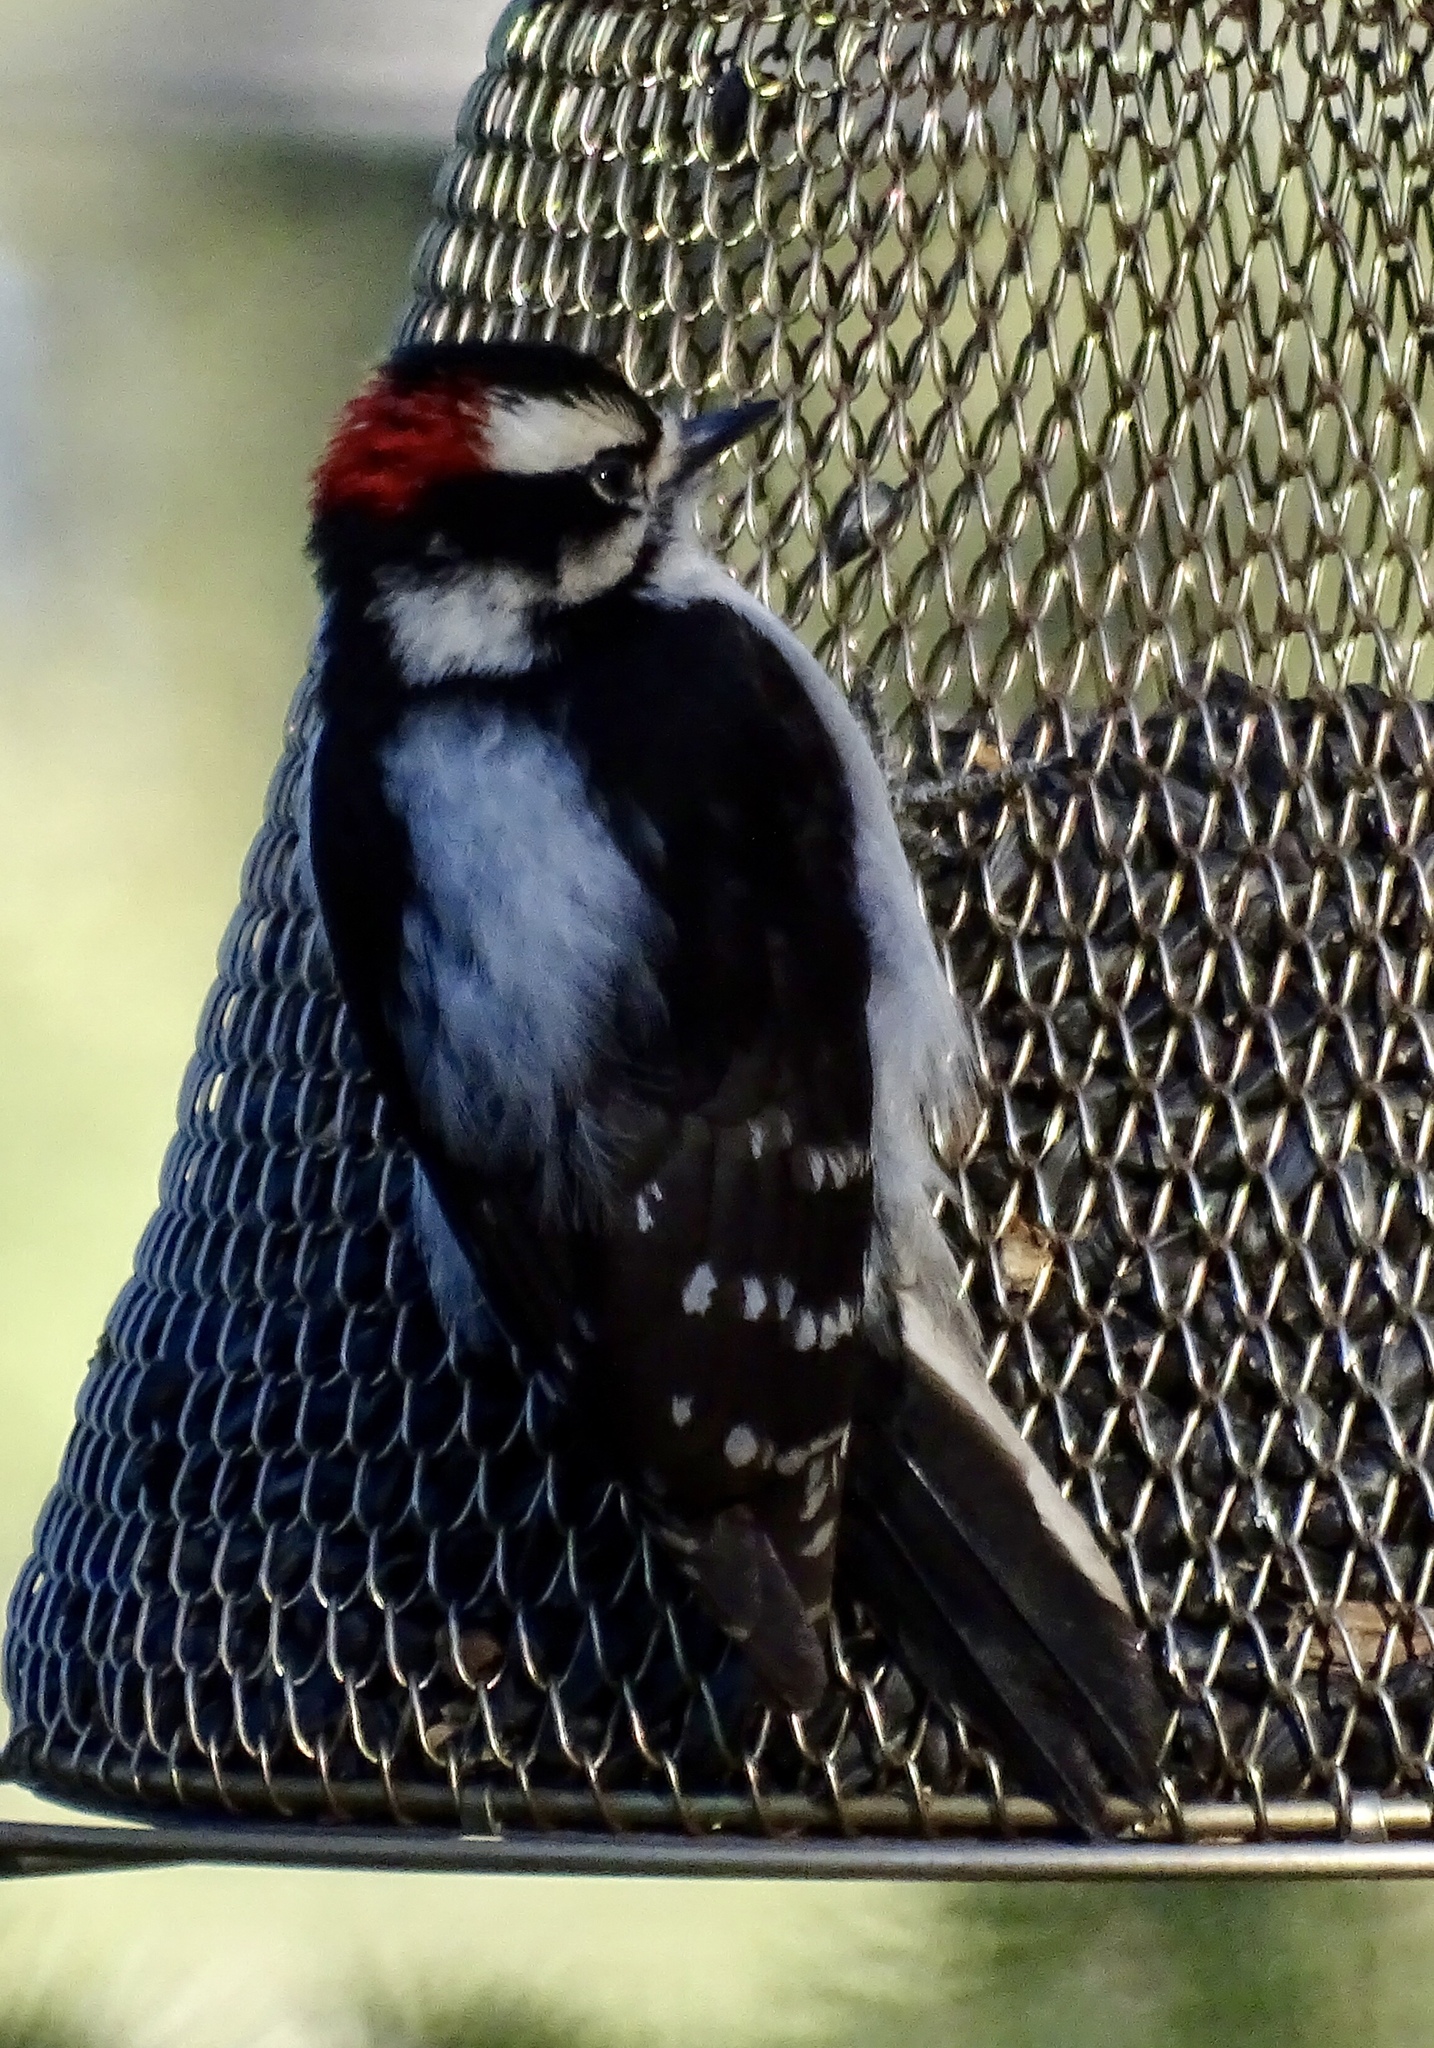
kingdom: Animalia
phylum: Chordata
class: Aves
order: Piciformes
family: Picidae
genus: Dryobates
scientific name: Dryobates pubescens
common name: Downy woodpecker
